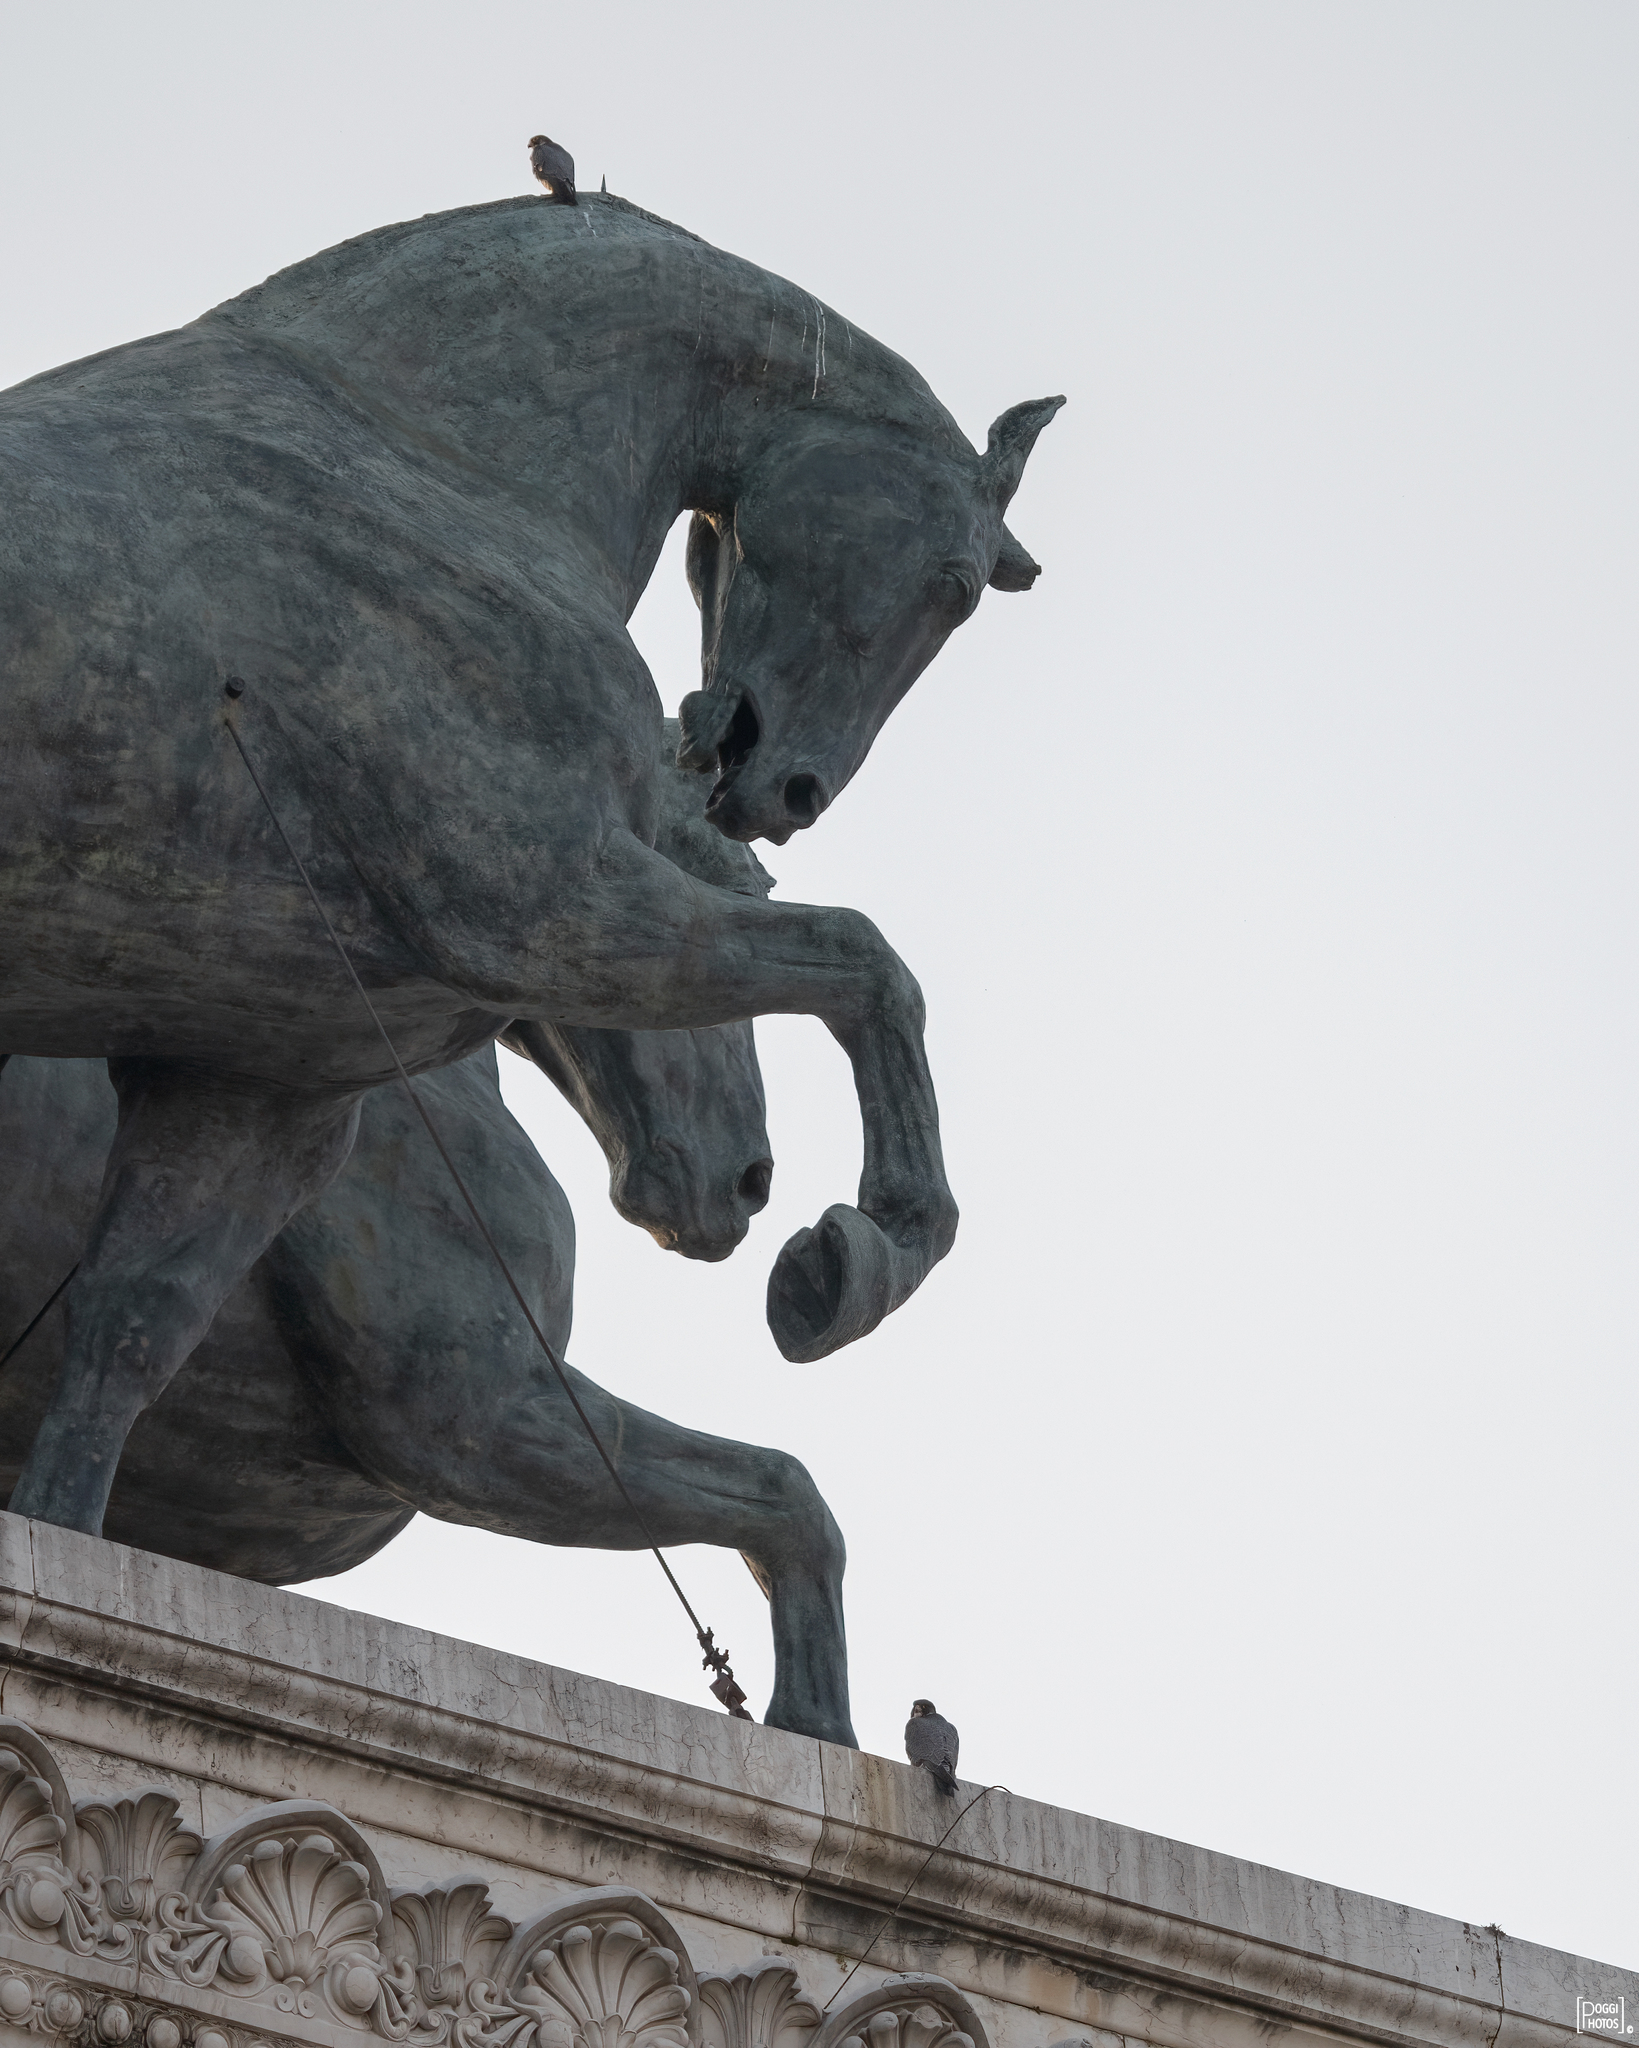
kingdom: Animalia
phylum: Chordata
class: Aves
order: Falconiformes
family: Falconidae
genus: Falco
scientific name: Falco peregrinus
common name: Peregrine falcon
